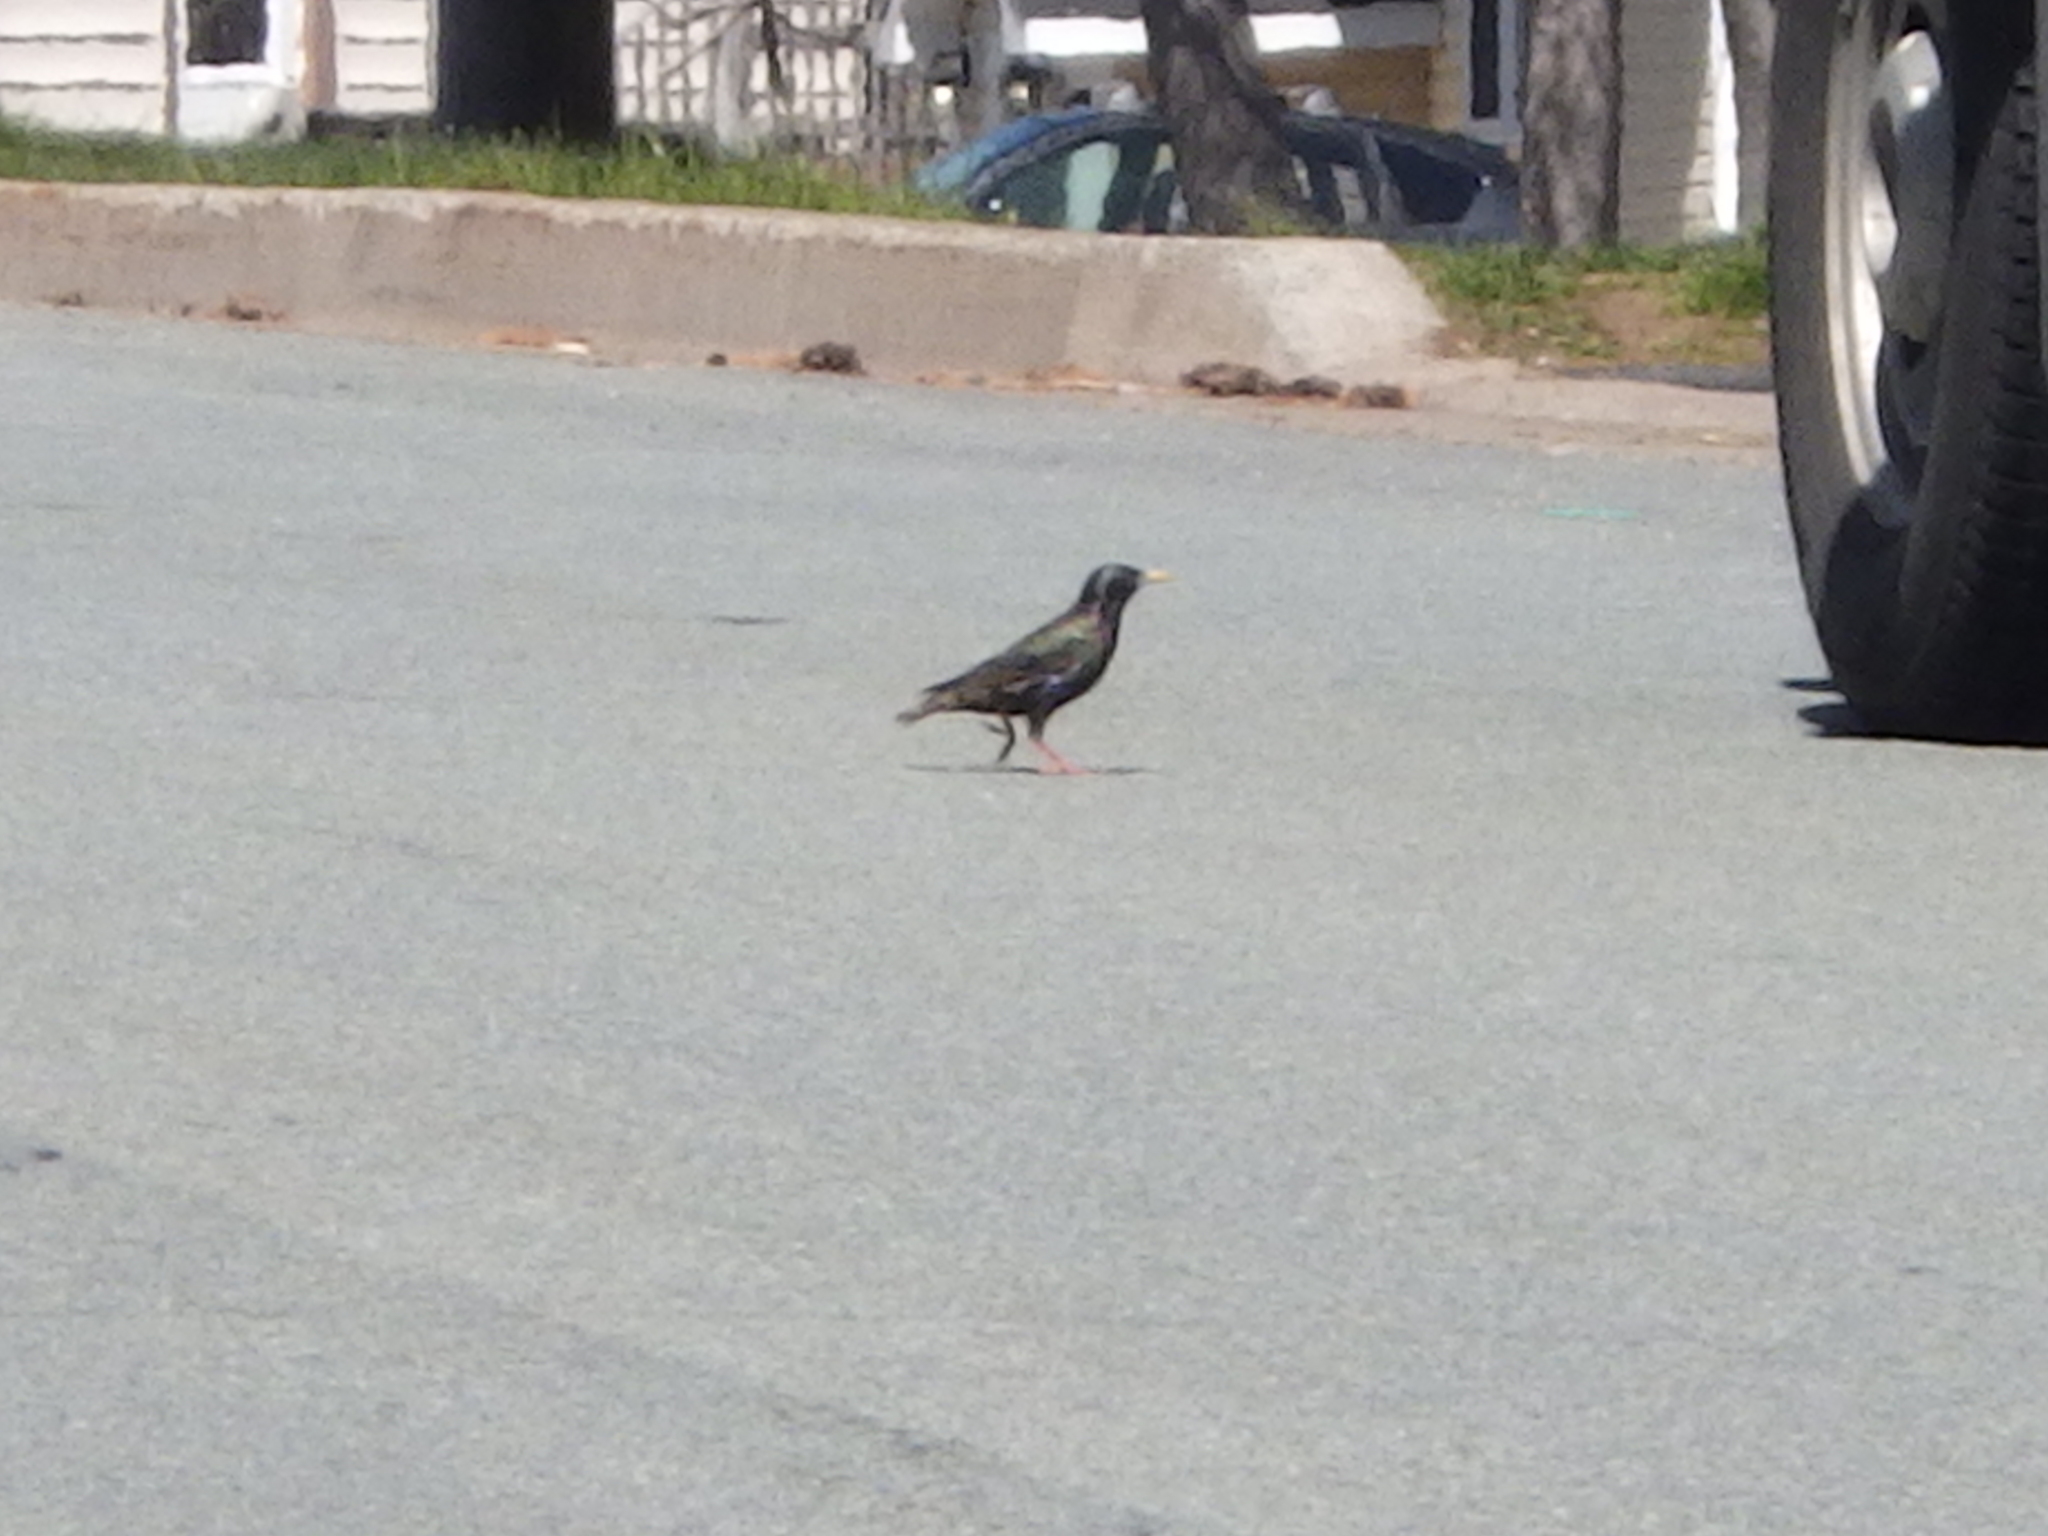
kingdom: Animalia
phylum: Chordata
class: Aves
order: Passeriformes
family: Sturnidae
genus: Sturnus
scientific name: Sturnus vulgaris
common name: Common starling
